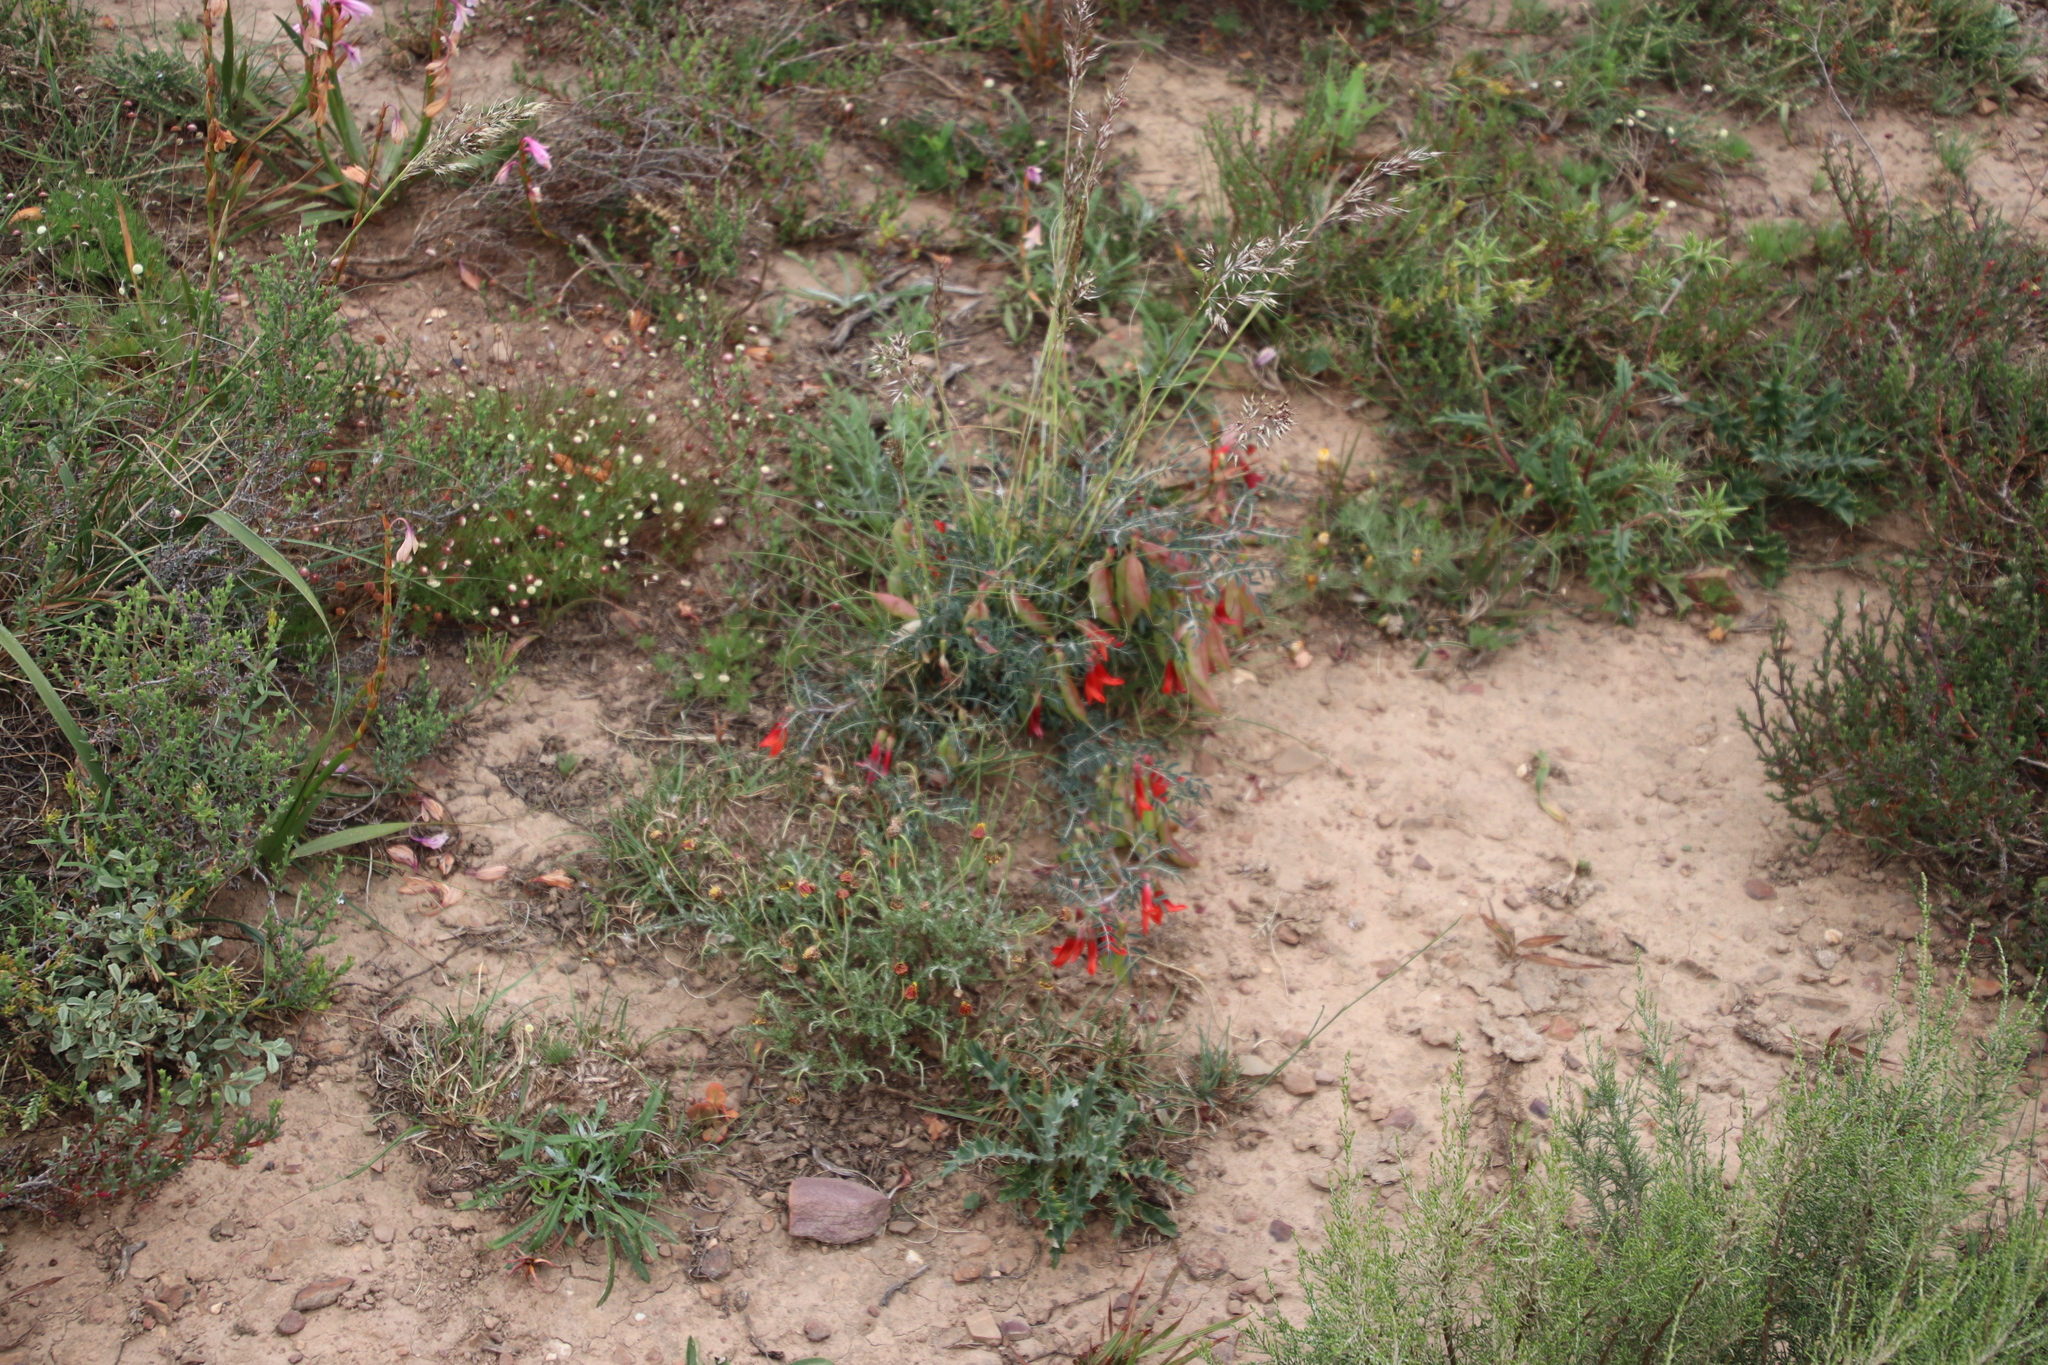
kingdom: Plantae
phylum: Tracheophyta
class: Magnoliopsida
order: Fabales
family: Fabaceae
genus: Lessertia
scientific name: Lessertia frutescens
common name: Balloon-pea
